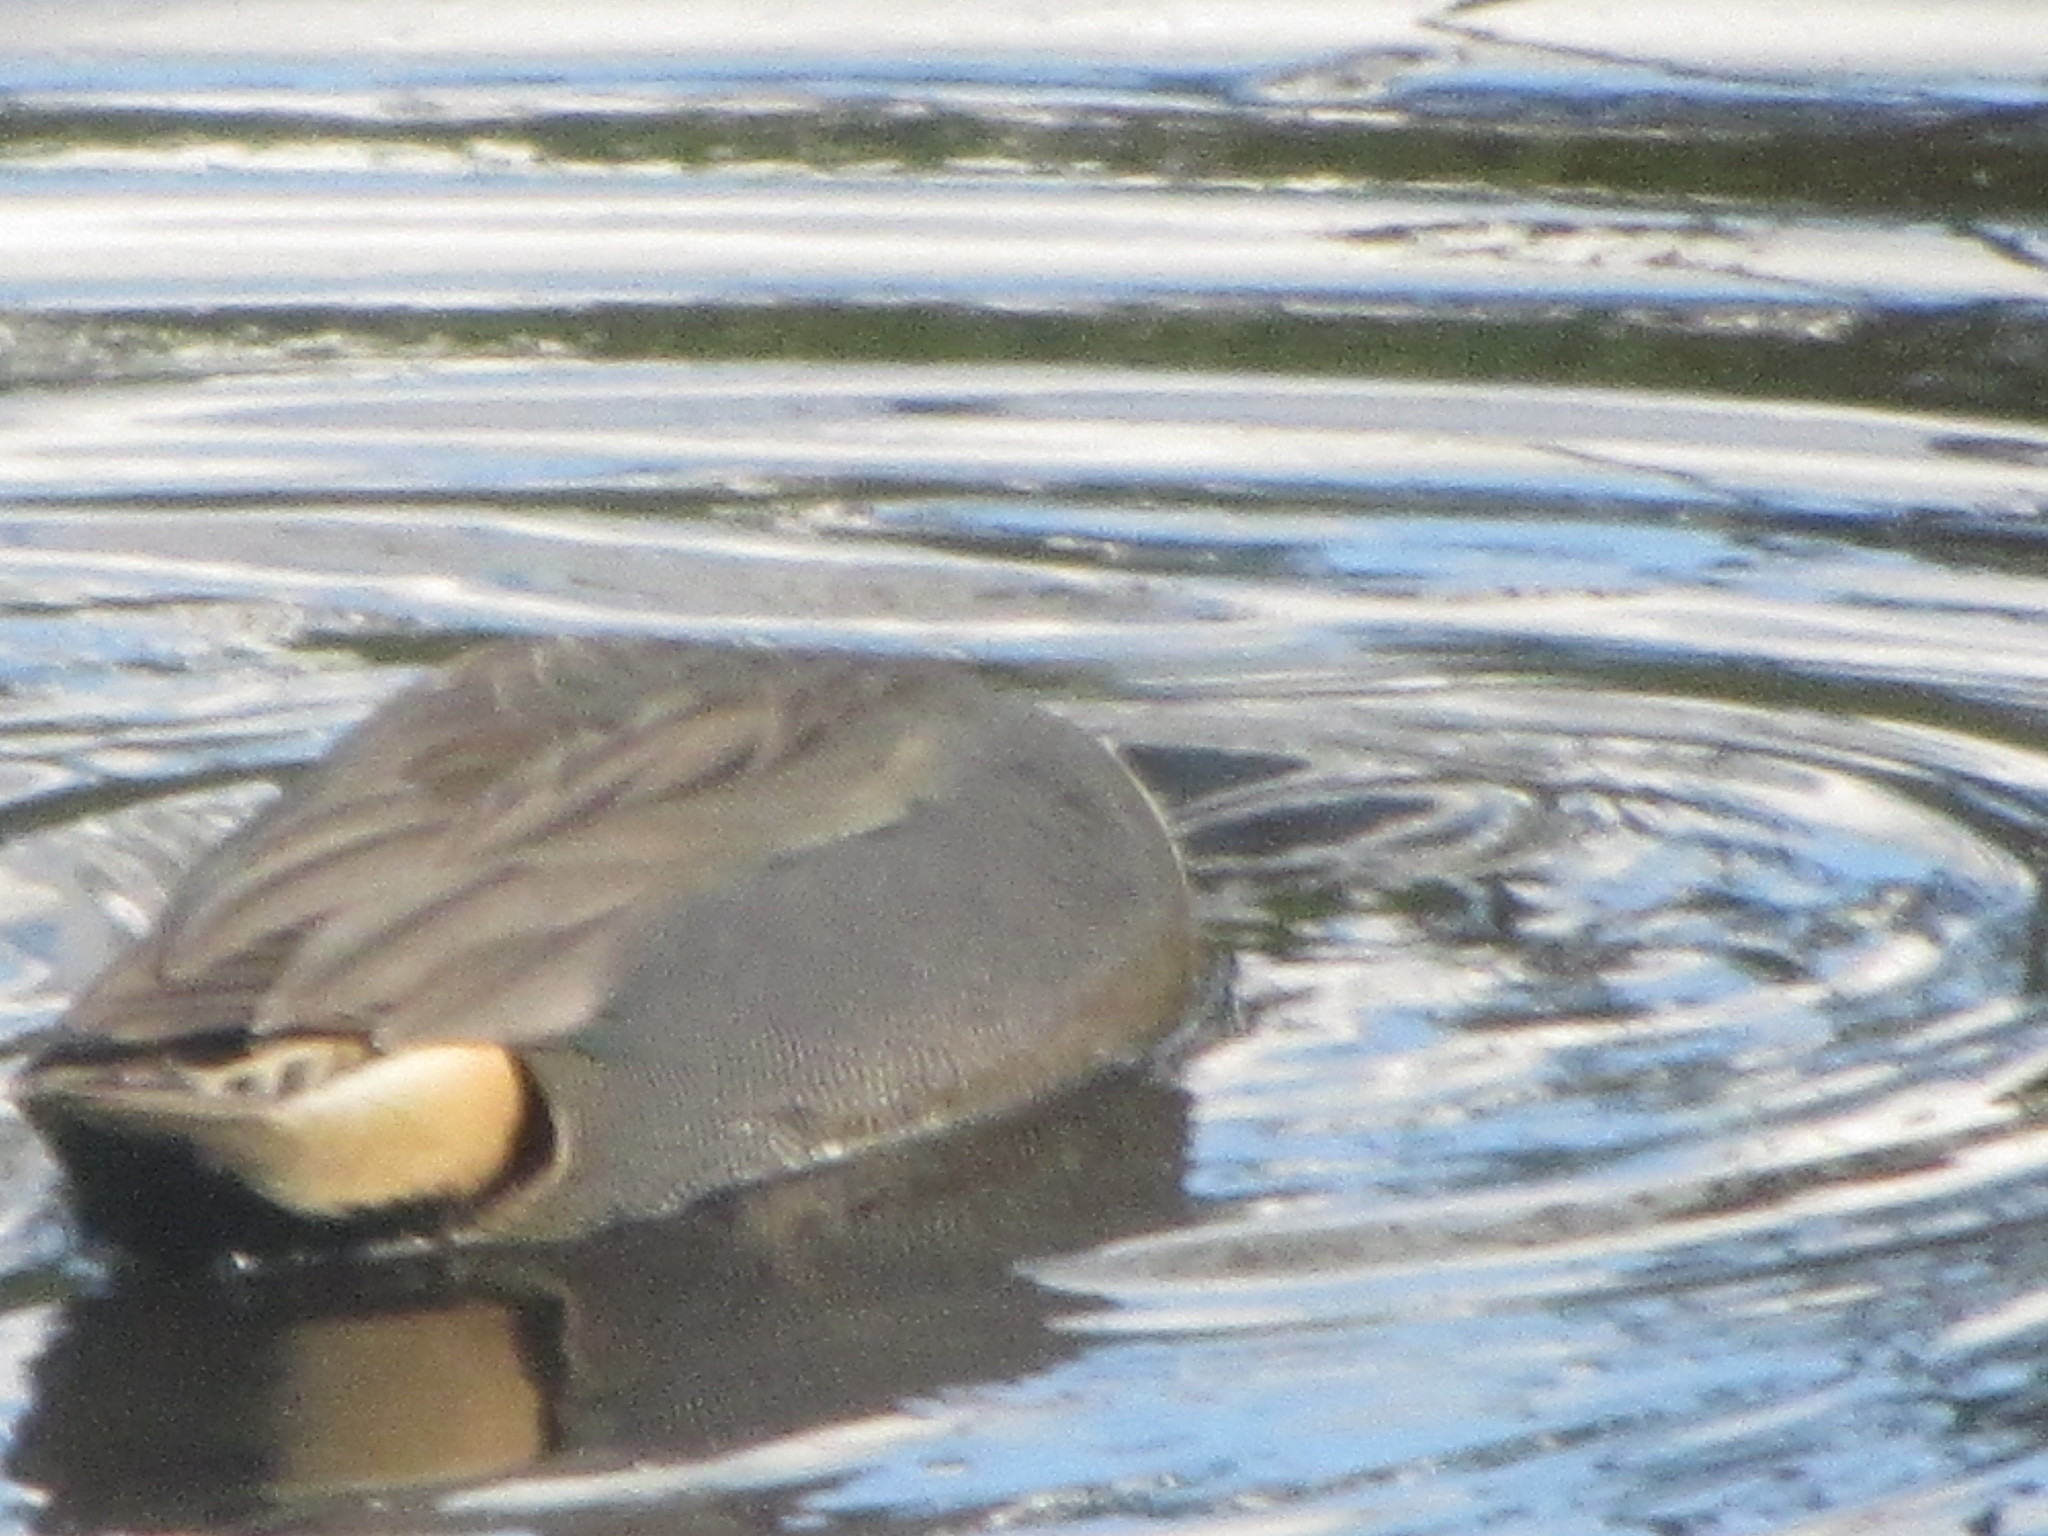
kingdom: Animalia
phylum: Chordata
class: Aves
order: Anseriformes
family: Anatidae
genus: Anas
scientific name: Anas crecca
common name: Eurasian teal
